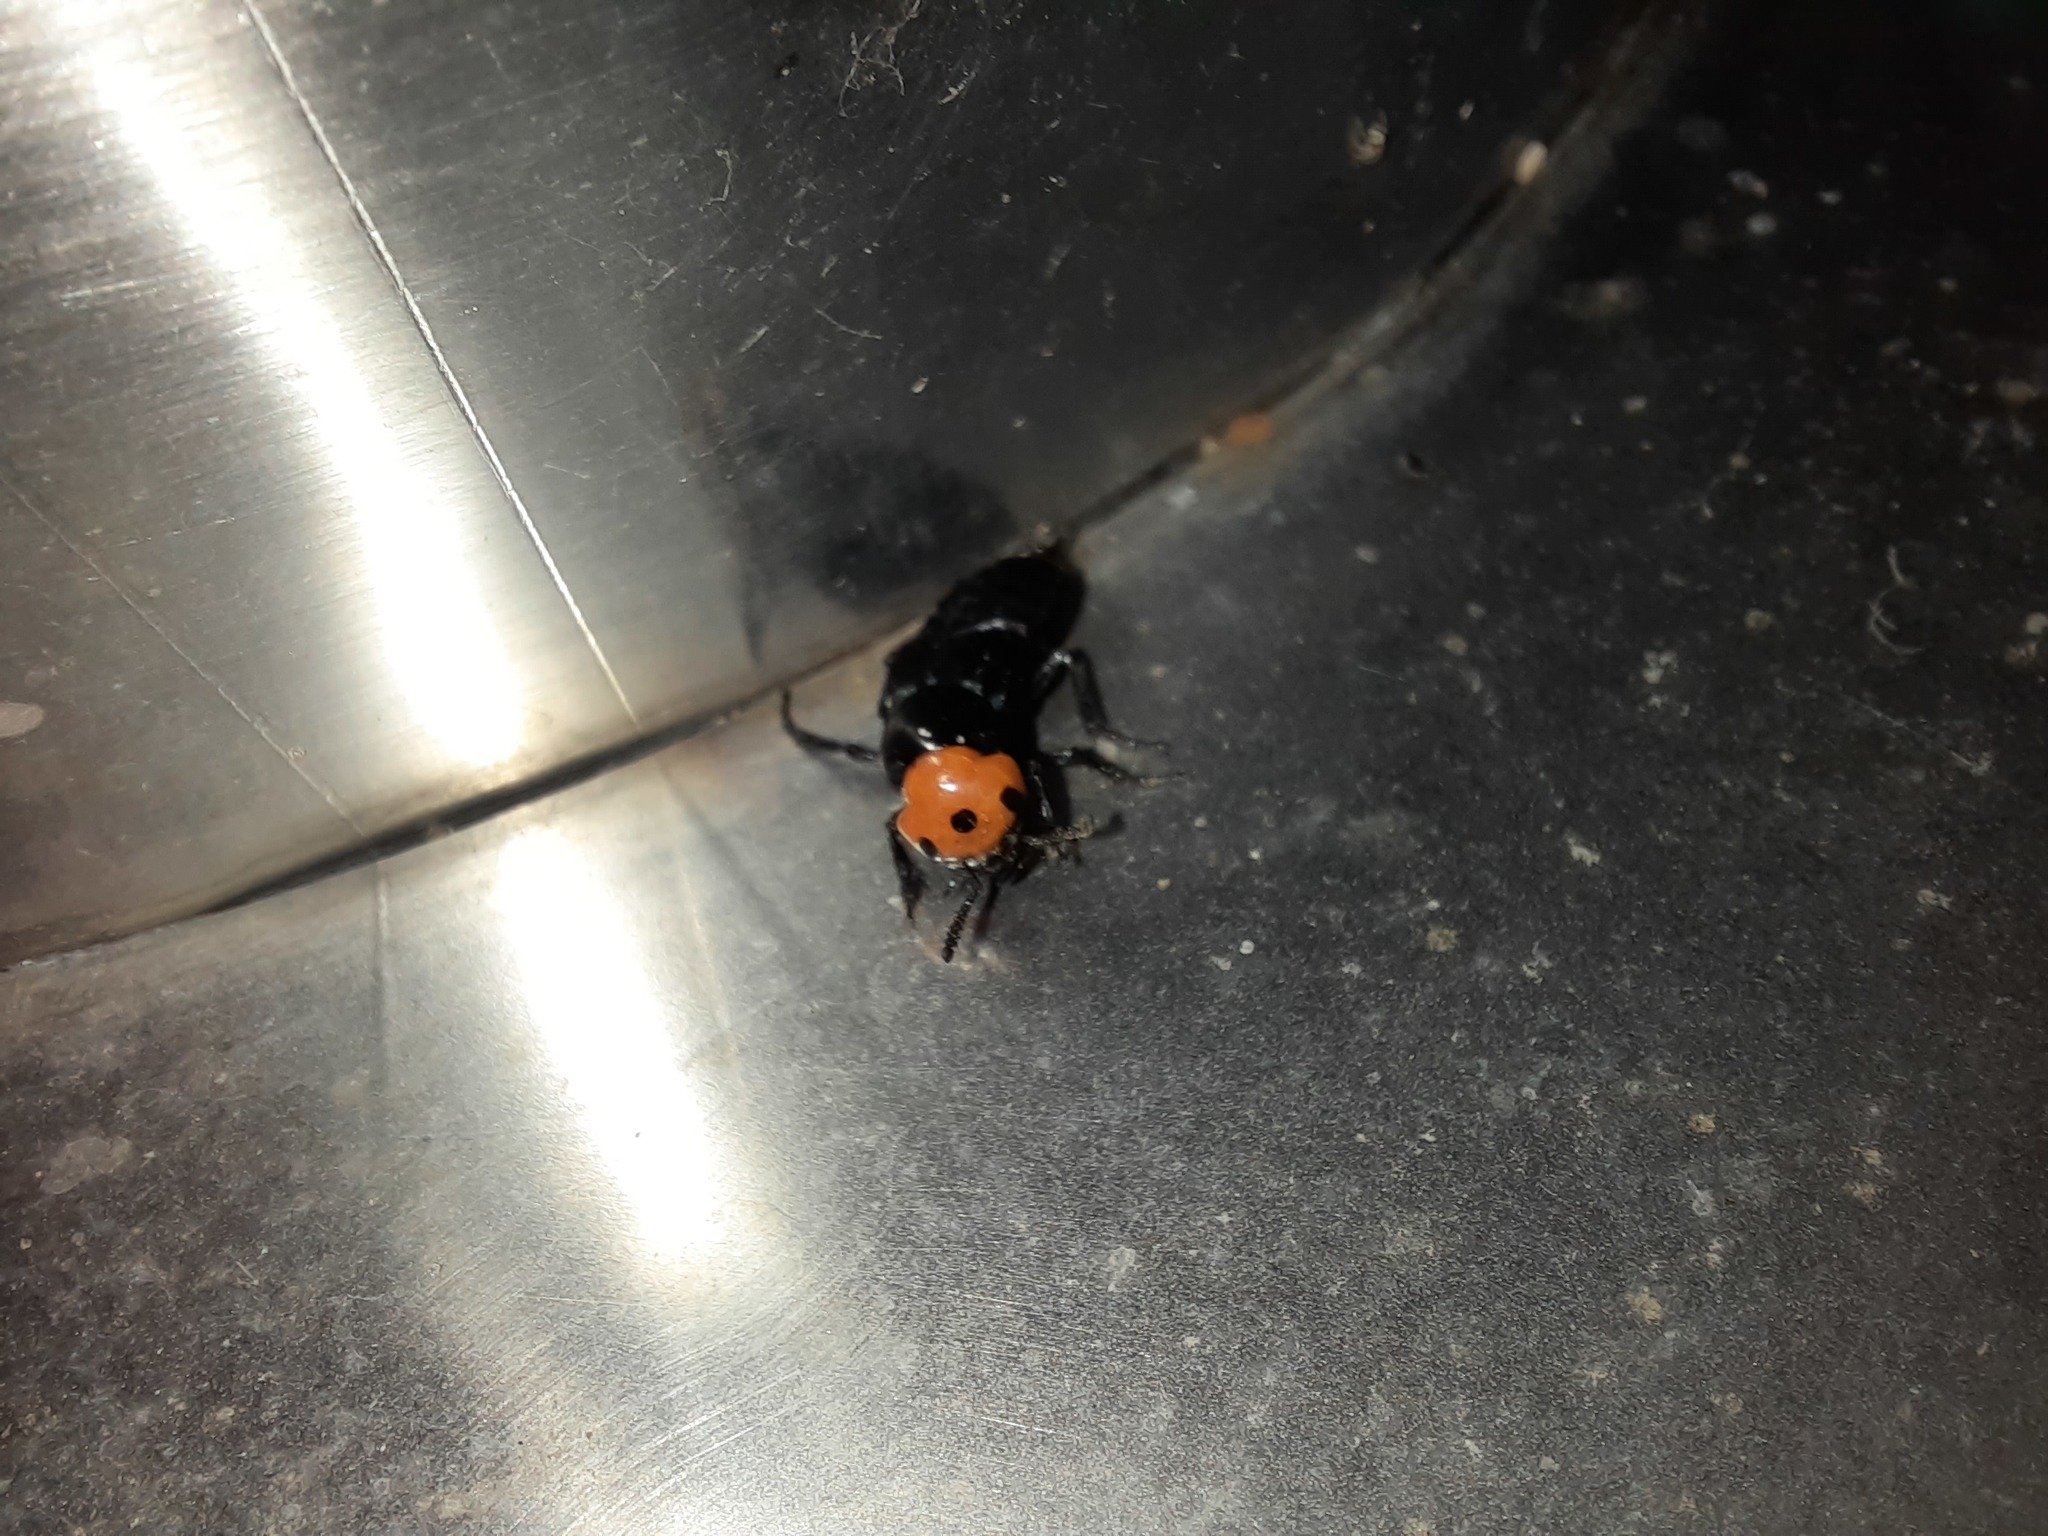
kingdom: Animalia
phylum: Arthropoda
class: Insecta
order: Coleoptera
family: Staphylinidae
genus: Creophilus
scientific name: Creophilus erythrocephalus
